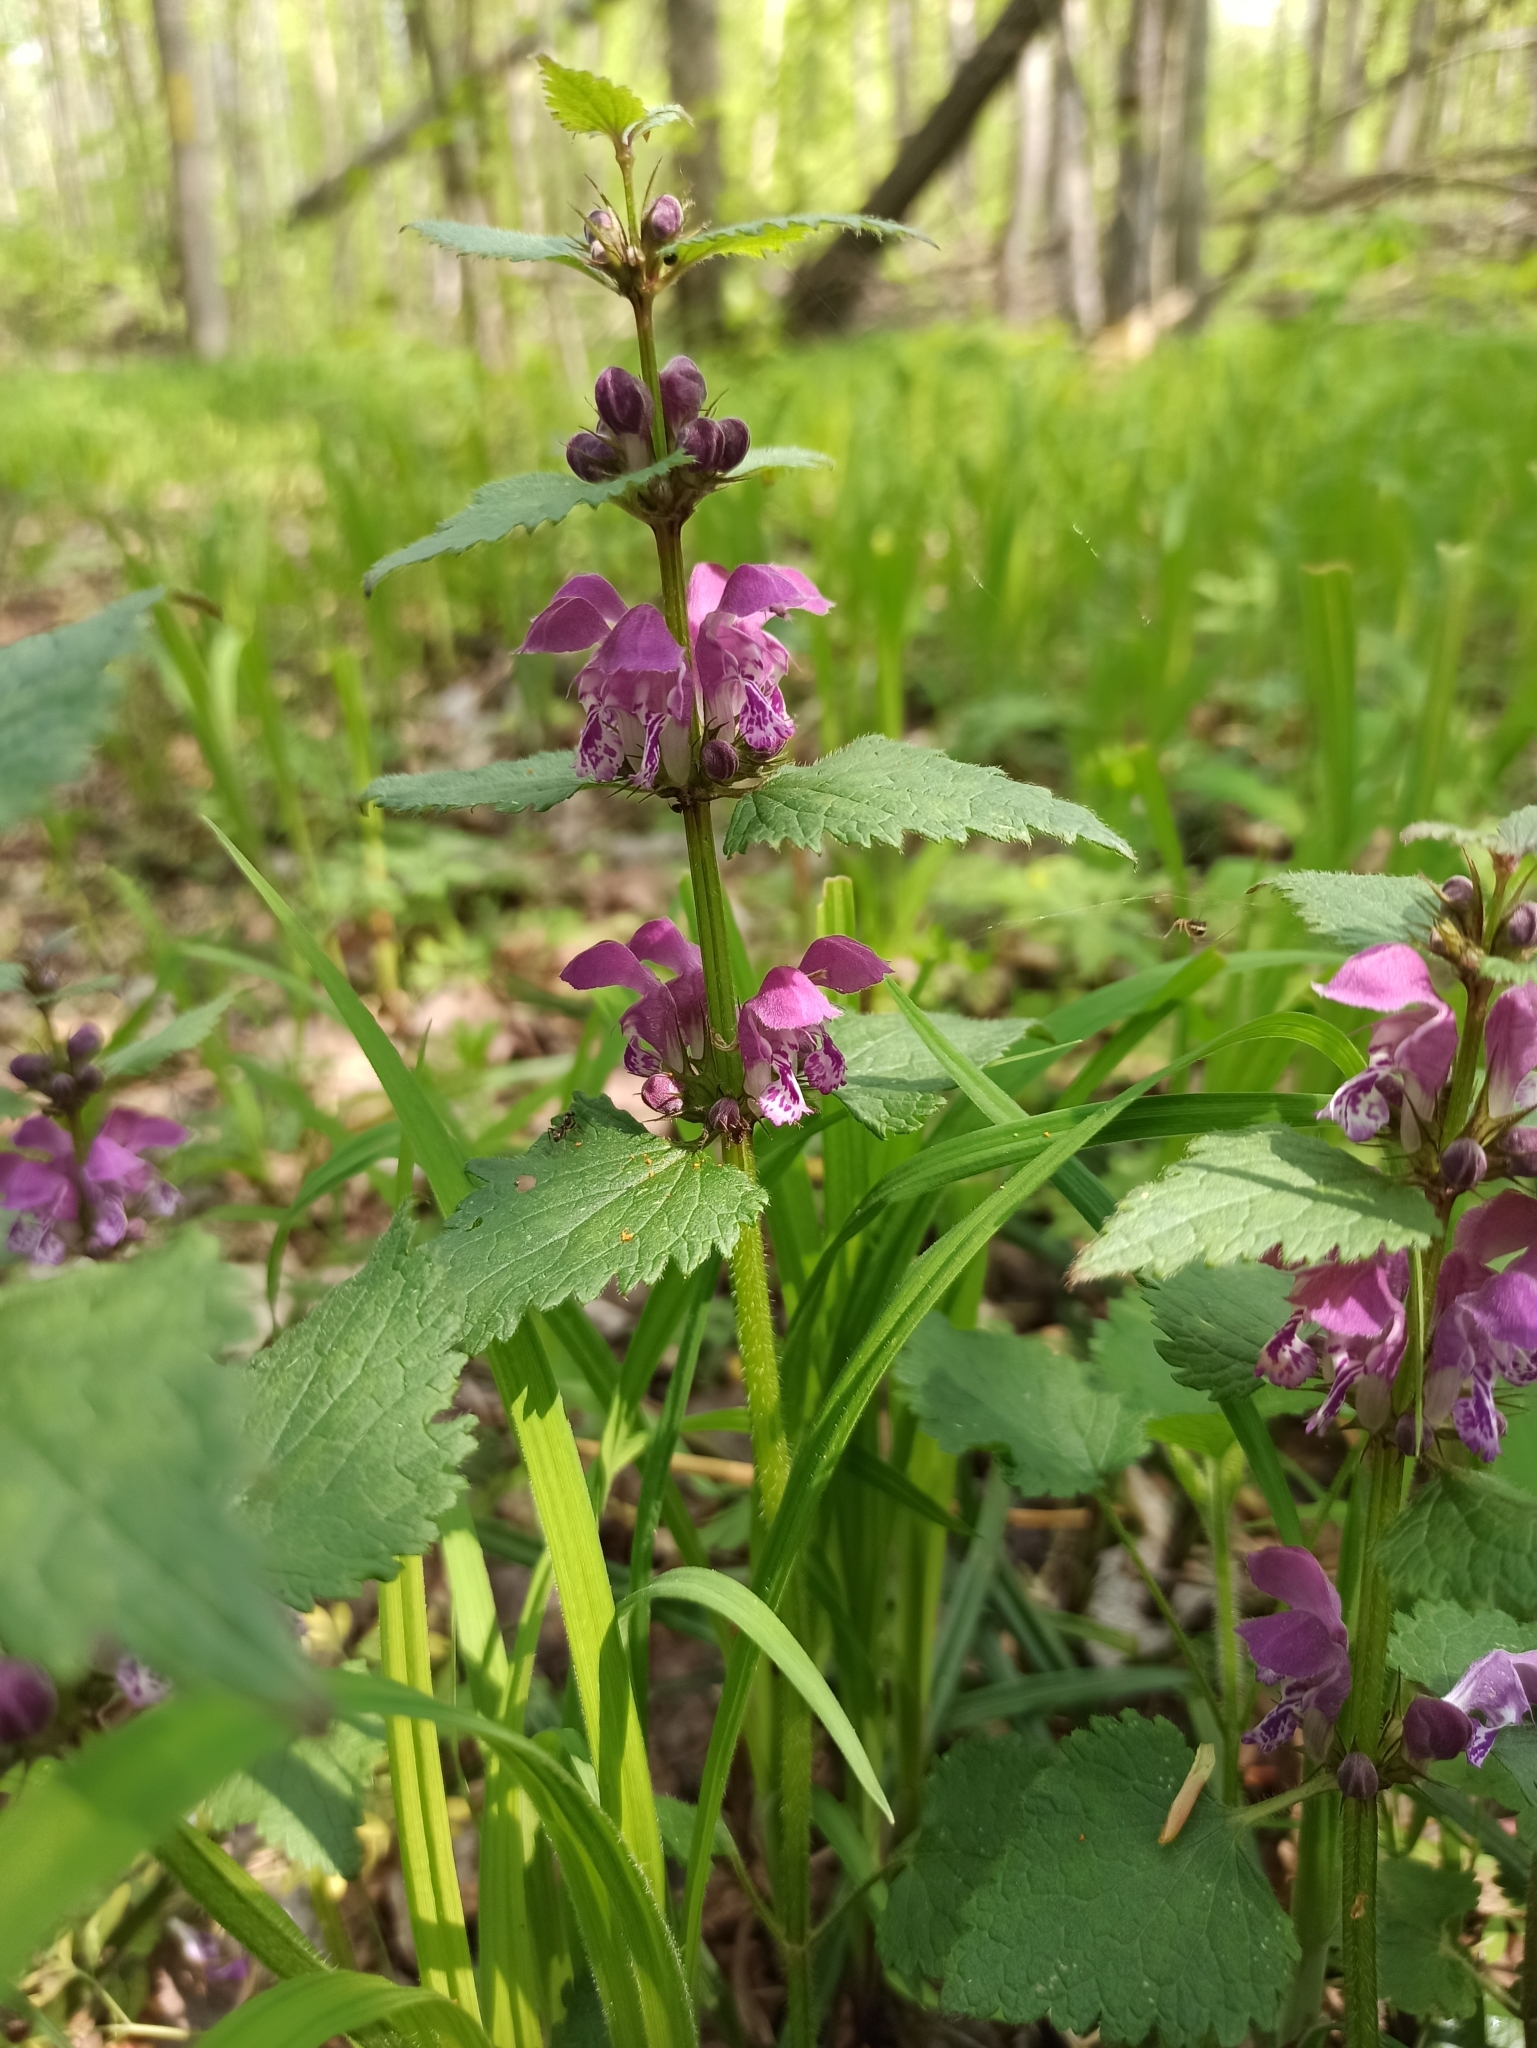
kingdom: Plantae
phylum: Tracheophyta
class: Magnoliopsida
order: Lamiales
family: Lamiaceae
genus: Lamium
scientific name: Lamium maculatum
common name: Spotted dead-nettle
